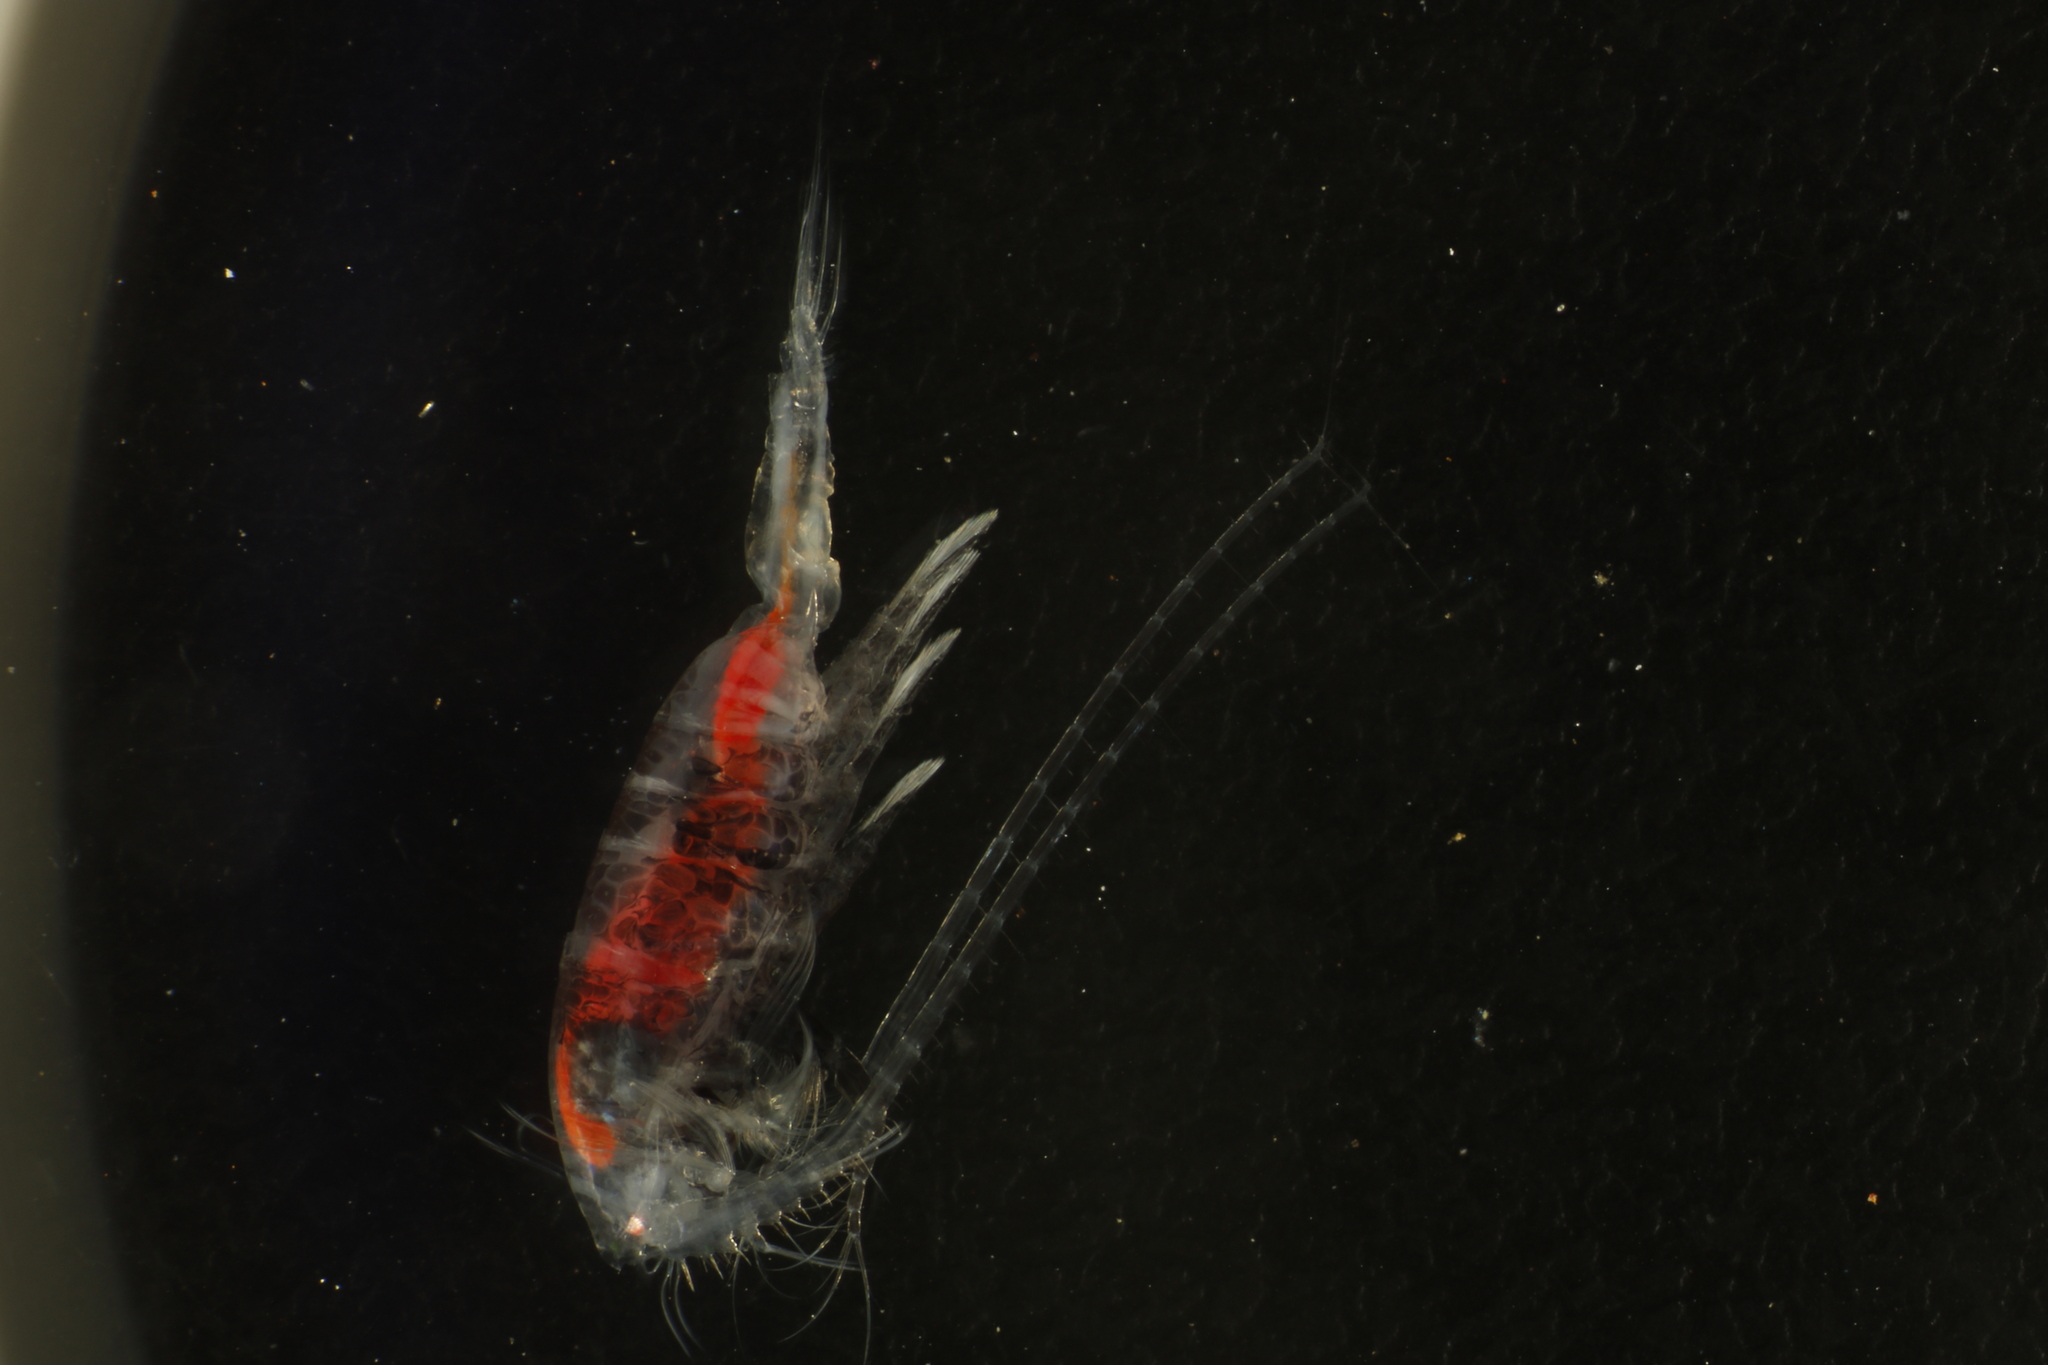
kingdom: Animalia
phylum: Arthropoda
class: Copepoda
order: Calanoida
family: Metridinidae
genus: Gaussia
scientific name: Gaussia princeps
